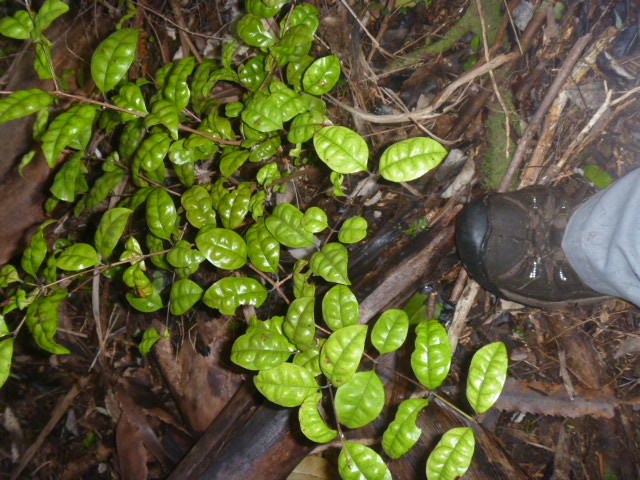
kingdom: Plantae
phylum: Tracheophyta
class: Magnoliopsida
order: Myrtales
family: Myrtaceae
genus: Lophomyrtus
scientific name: Lophomyrtus bullata
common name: Rama rama
